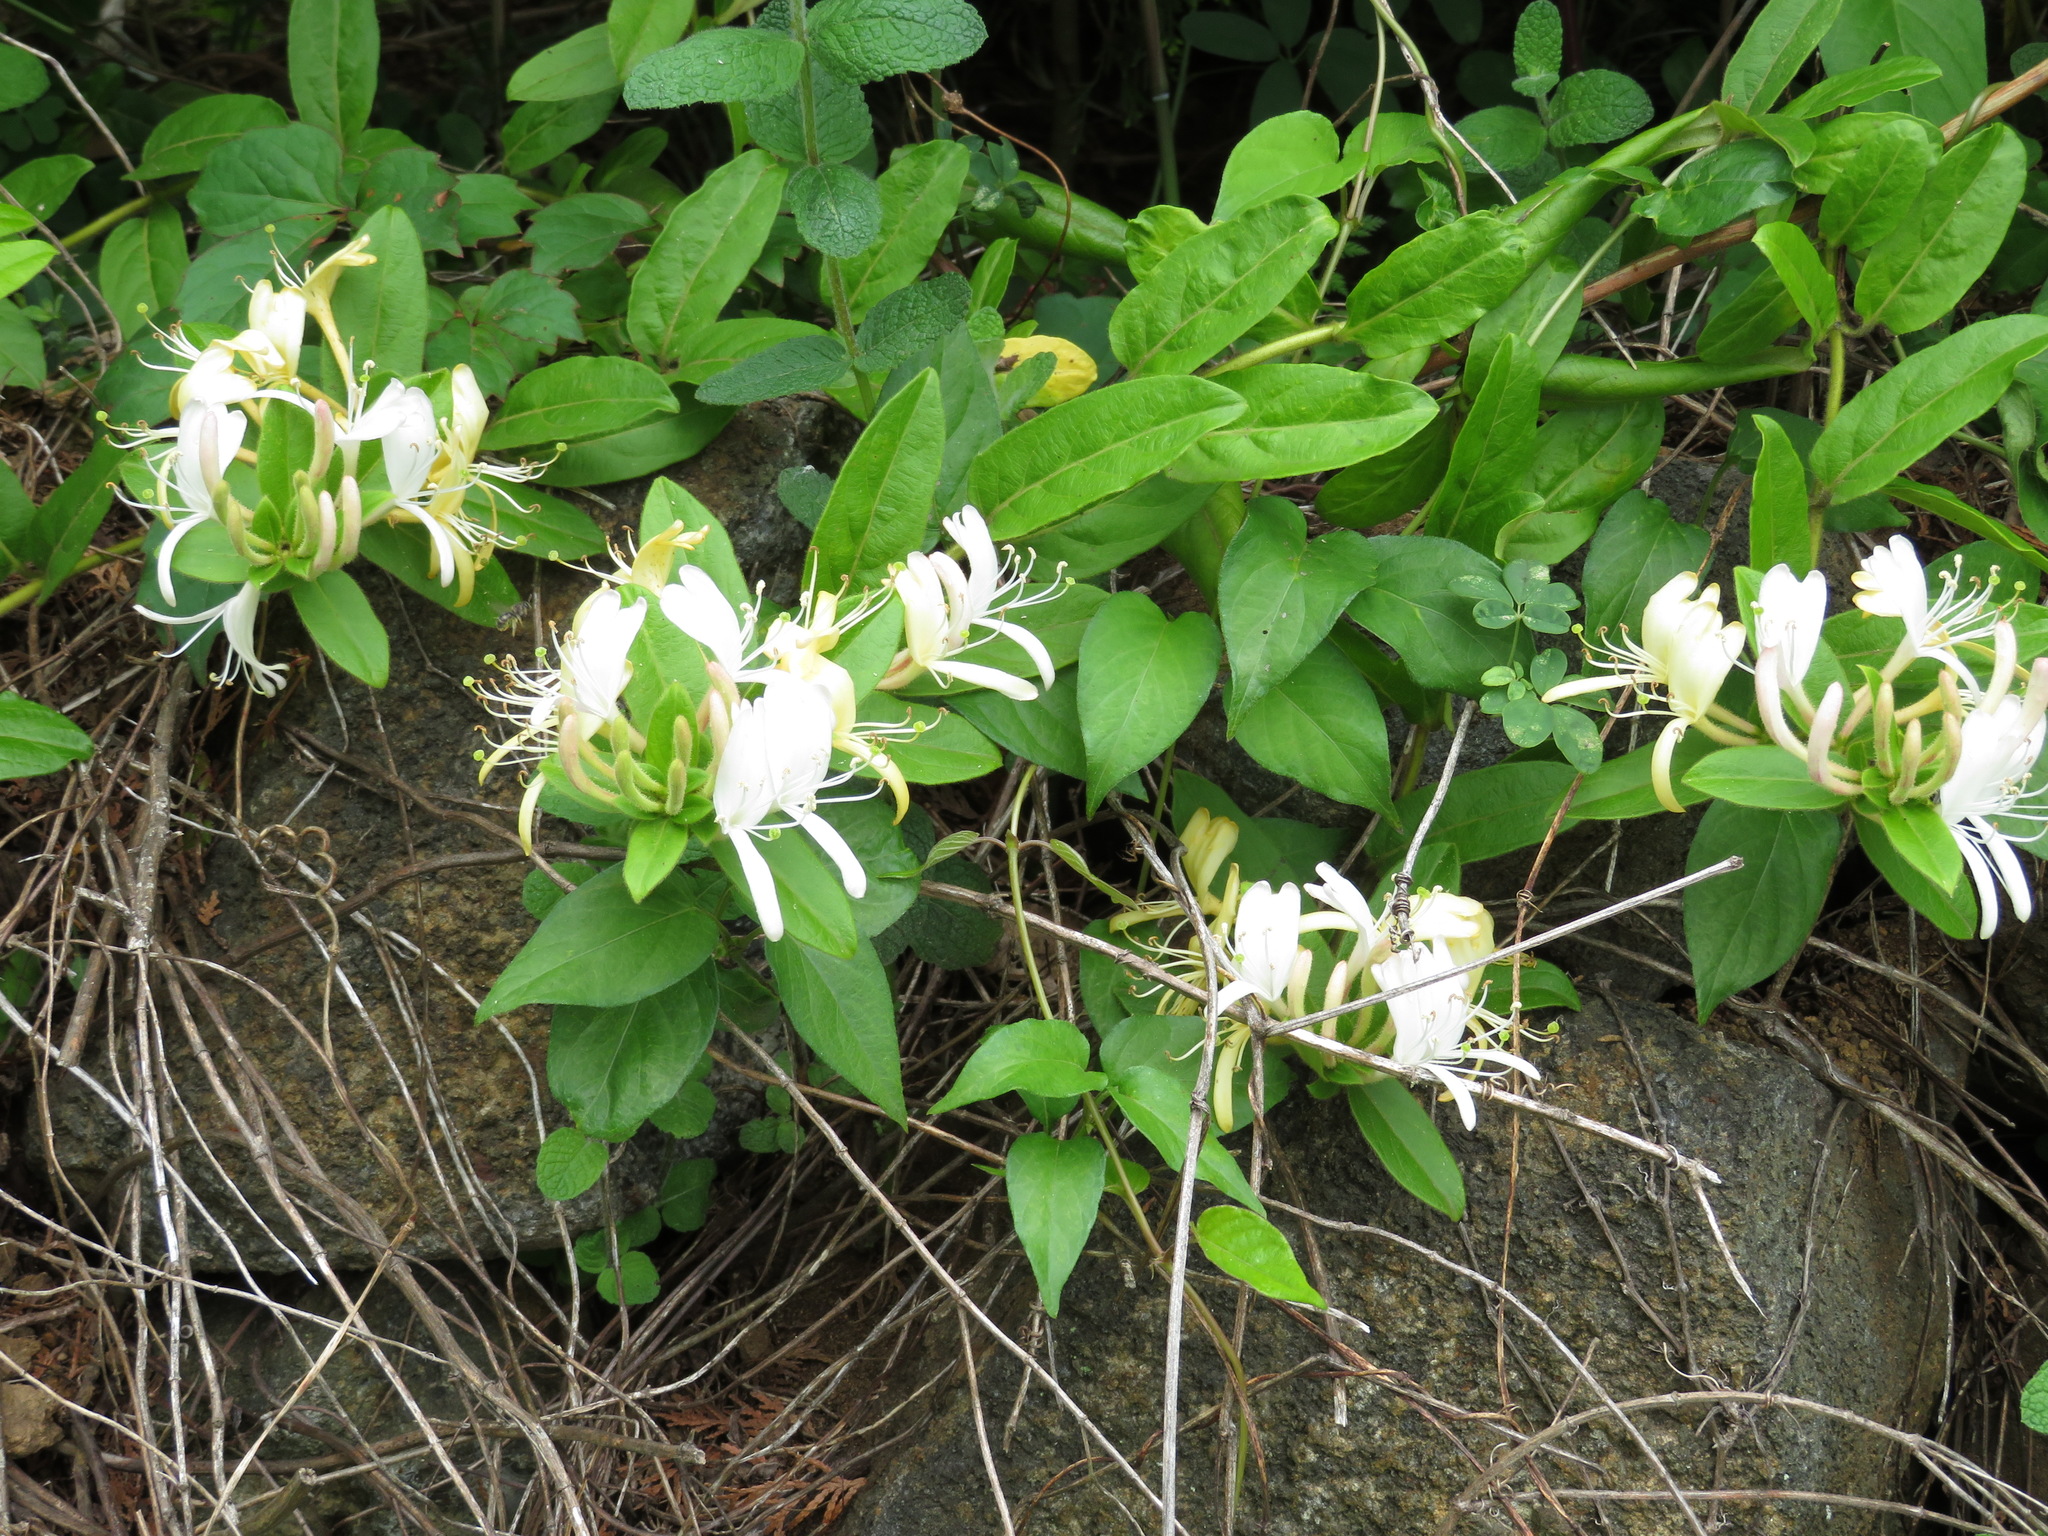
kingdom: Plantae
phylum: Tracheophyta
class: Magnoliopsida
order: Dipsacales
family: Caprifoliaceae
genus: Lonicera
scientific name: Lonicera japonica
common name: Japanese honeysuckle
